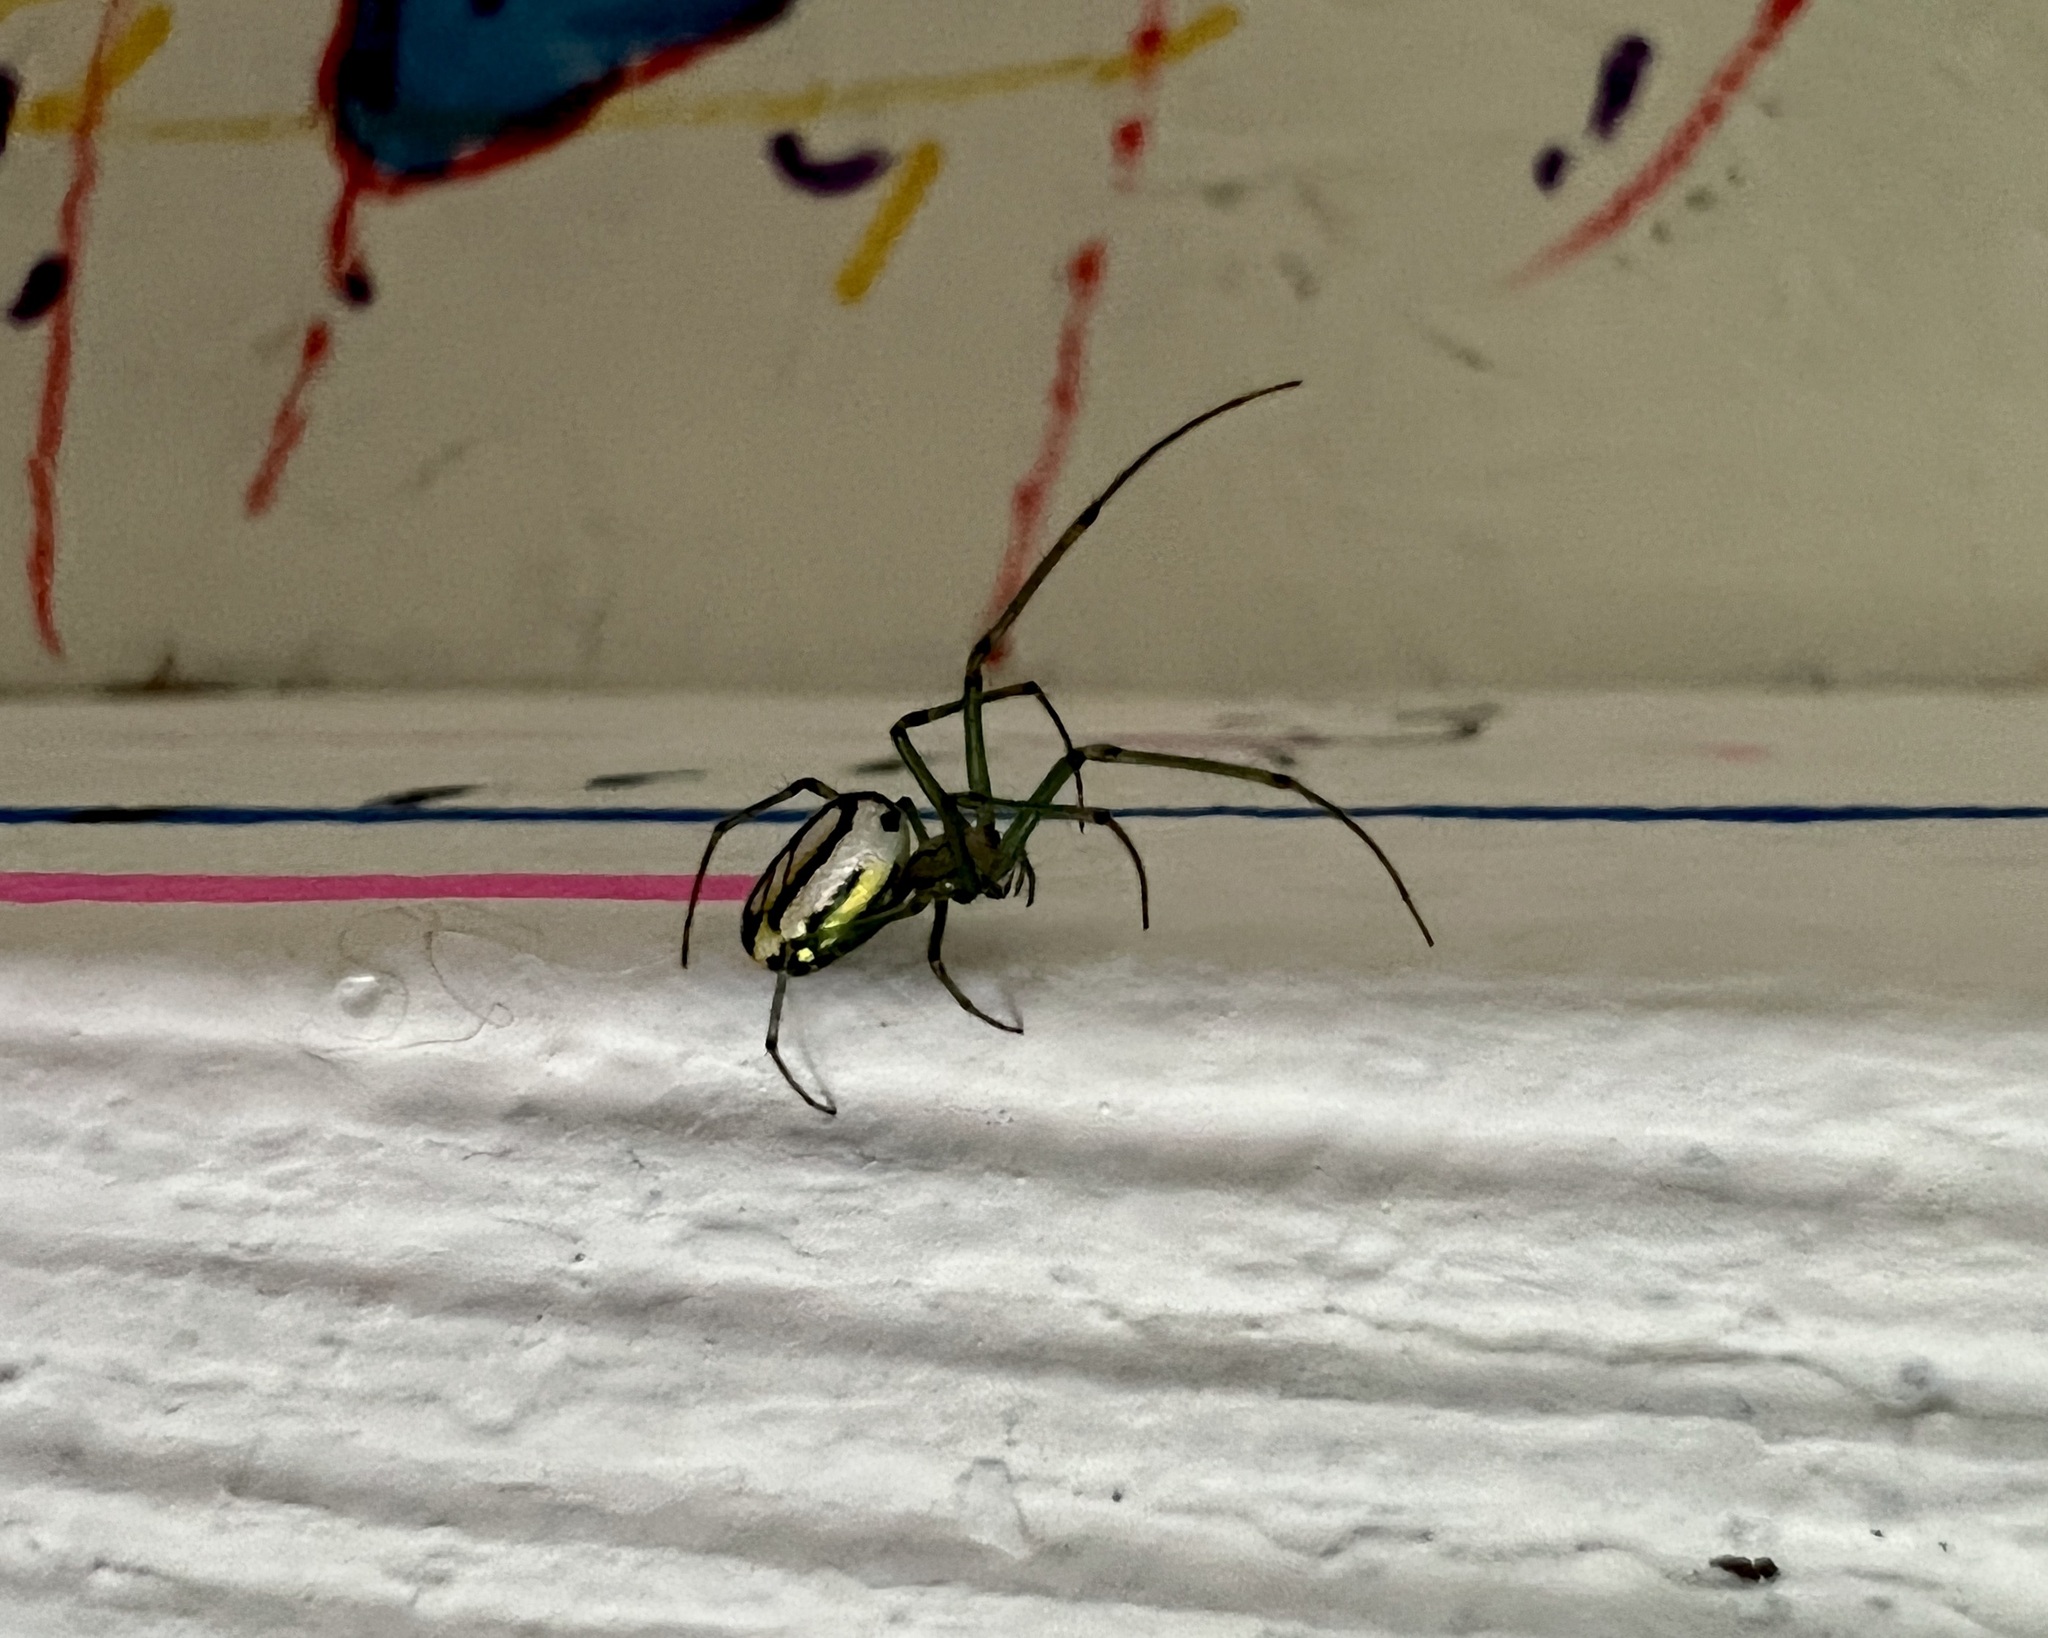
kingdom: Animalia
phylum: Arthropoda
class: Arachnida
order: Araneae
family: Tetragnathidae
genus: Leucauge
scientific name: Leucauge venusta
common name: Longjawed orb weavers
